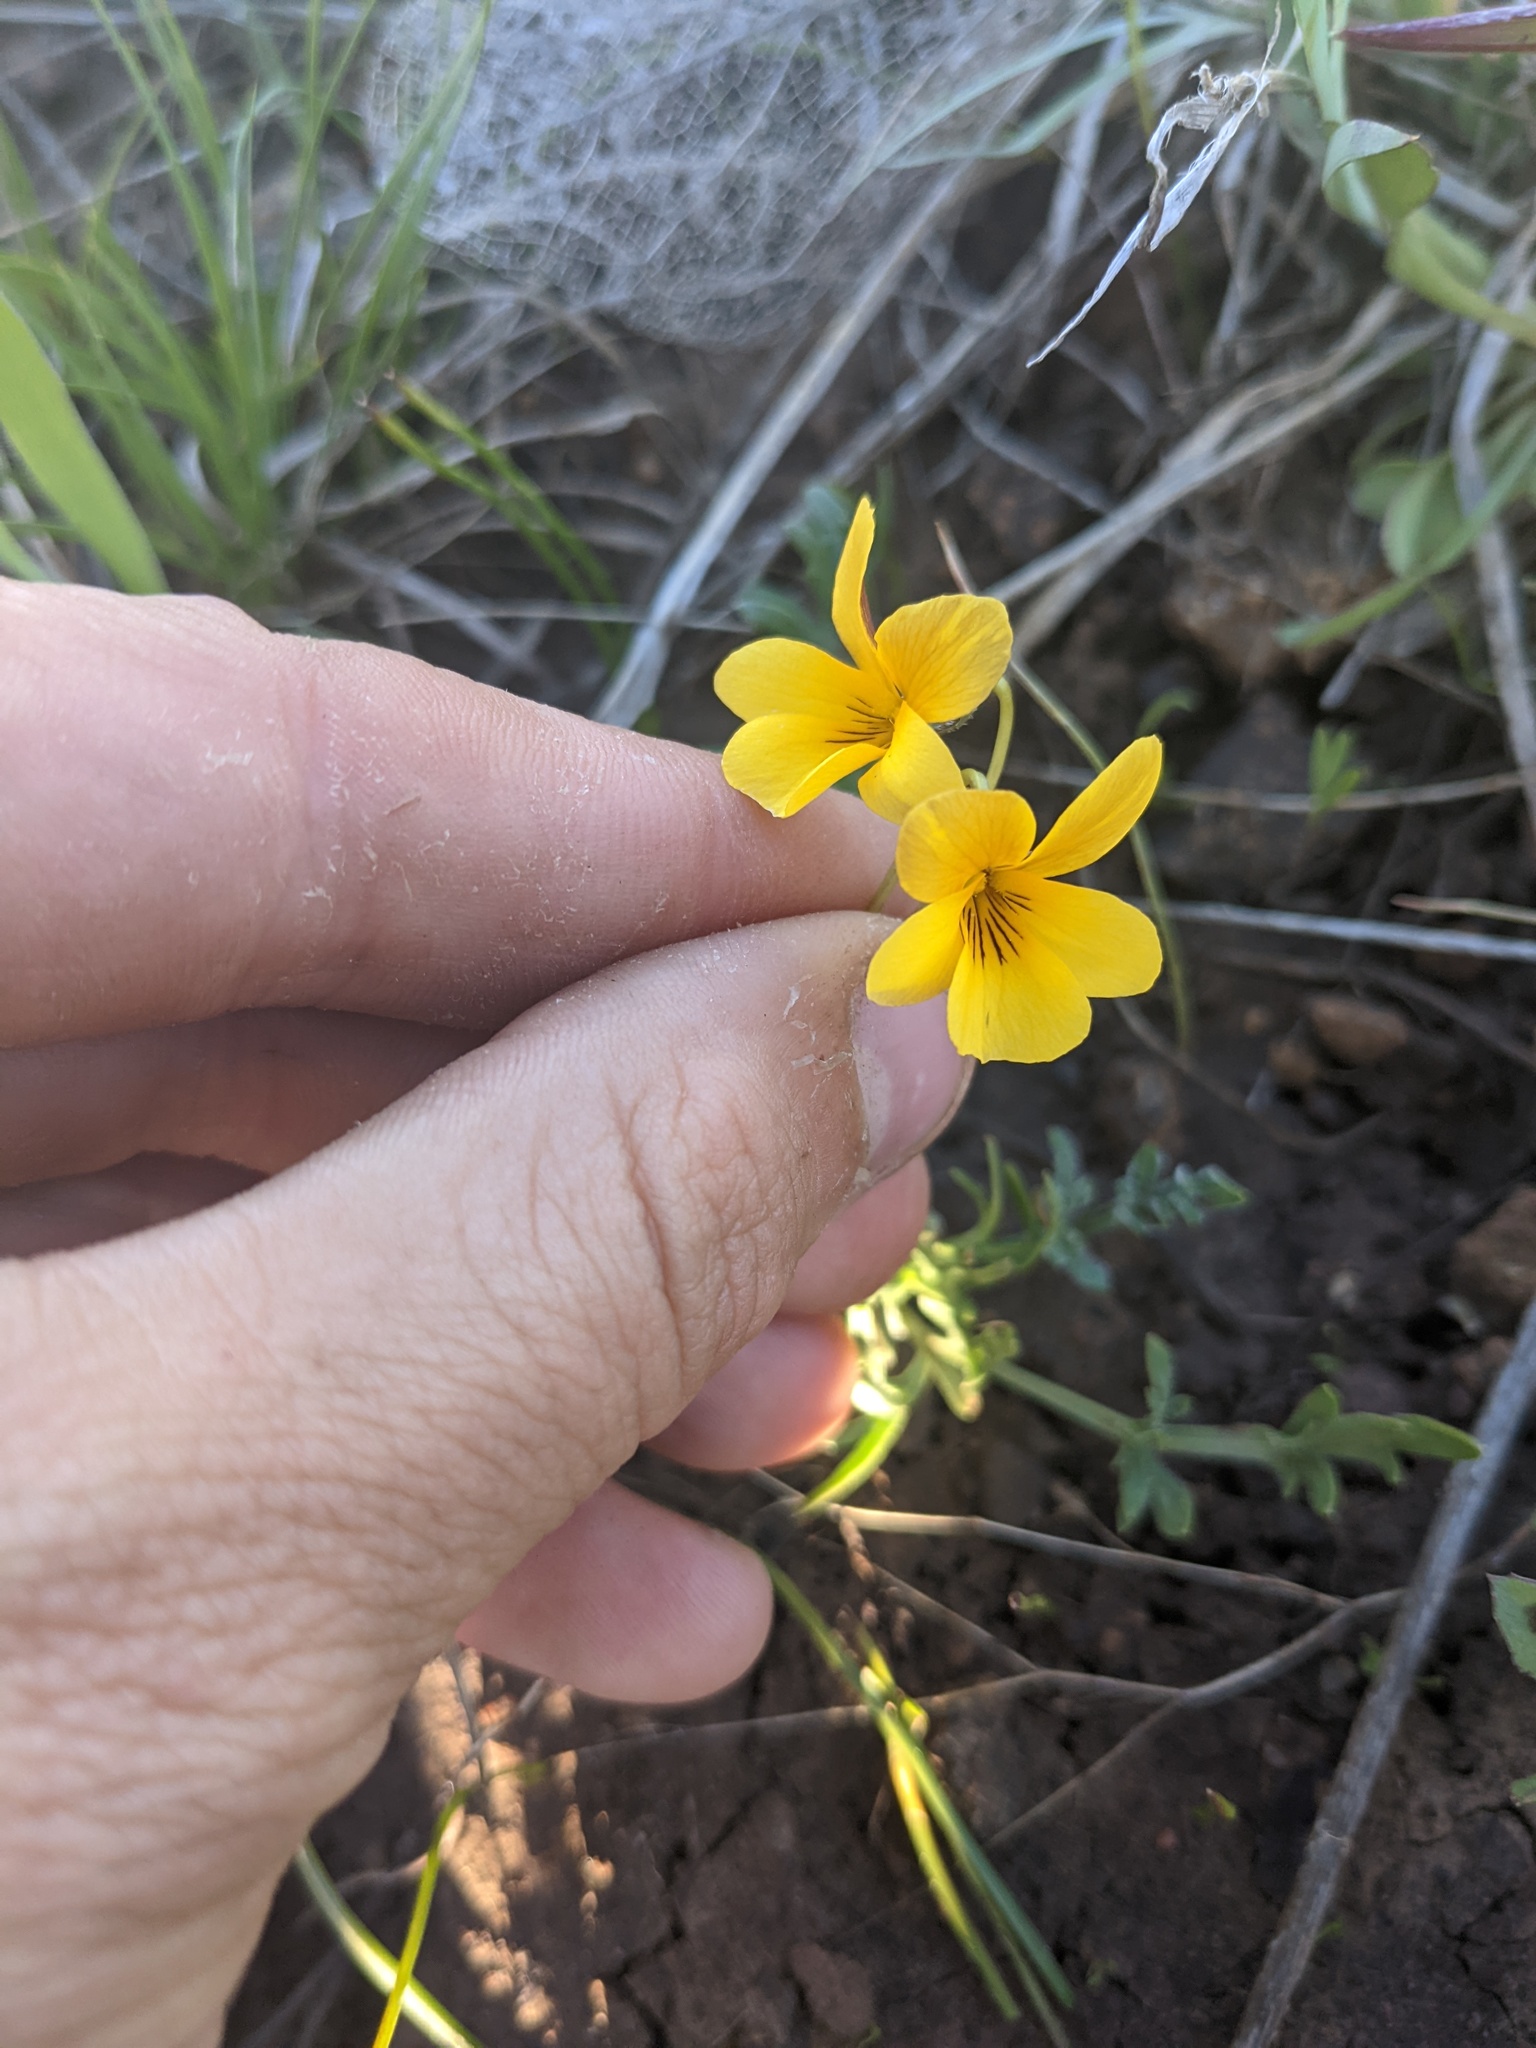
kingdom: Plantae
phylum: Tracheophyta
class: Magnoliopsida
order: Malpighiales
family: Violaceae
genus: Viola
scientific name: Viola douglasii
